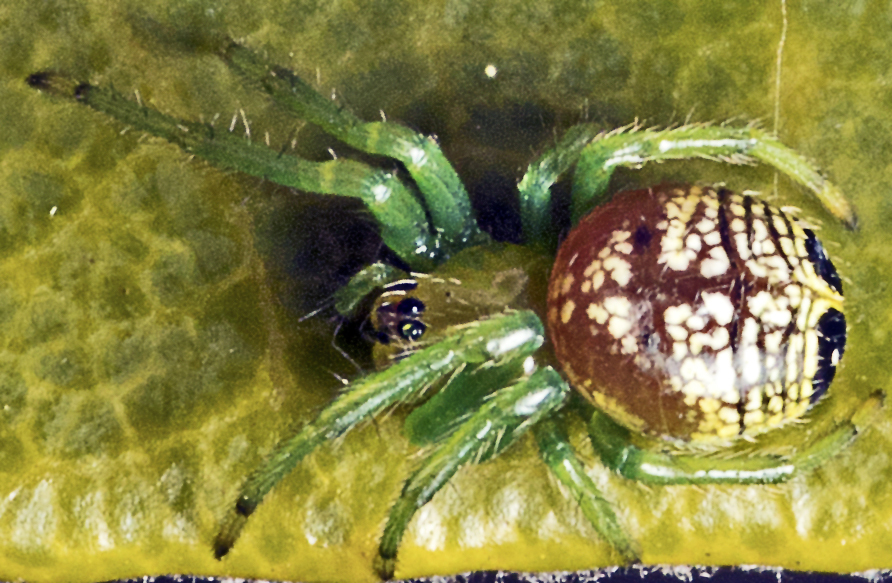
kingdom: Animalia
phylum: Arthropoda
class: Arachnida
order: Araneae
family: Araneidae
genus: Bijoaraneus
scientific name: Bijoaraneus praesignis
